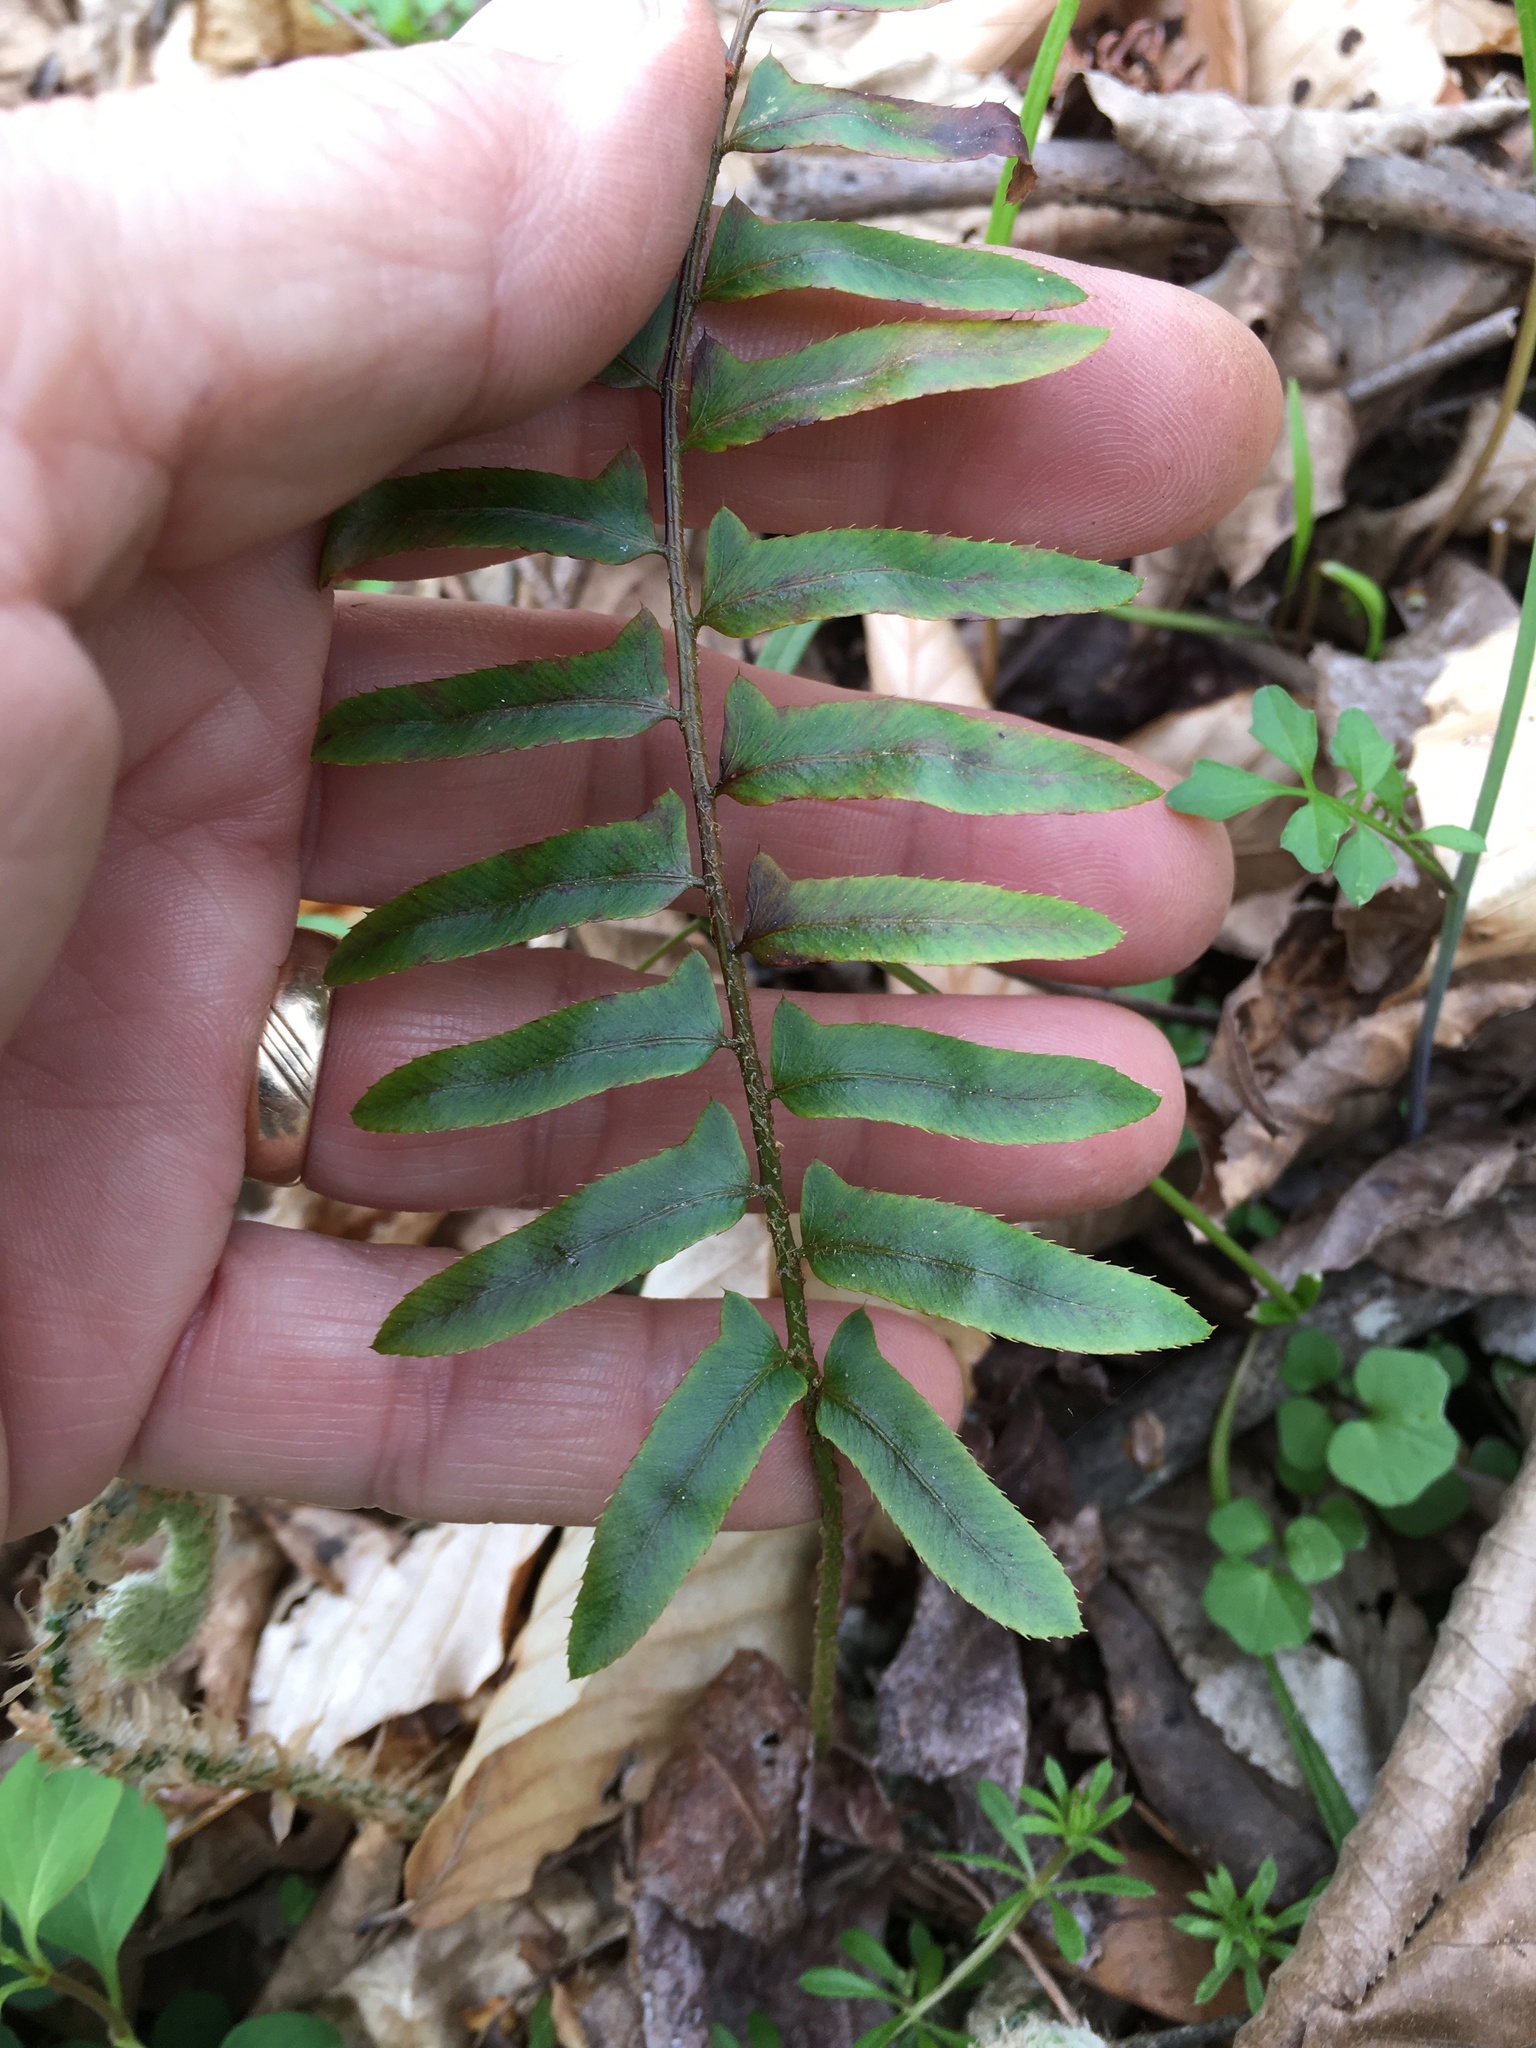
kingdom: Plantae
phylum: Tracheophyta
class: Polypodiopsida
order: Polypodiales
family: Dryopteridaceae
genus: Polystichum
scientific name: Polystichum acrostichoides
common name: Christmas fern
